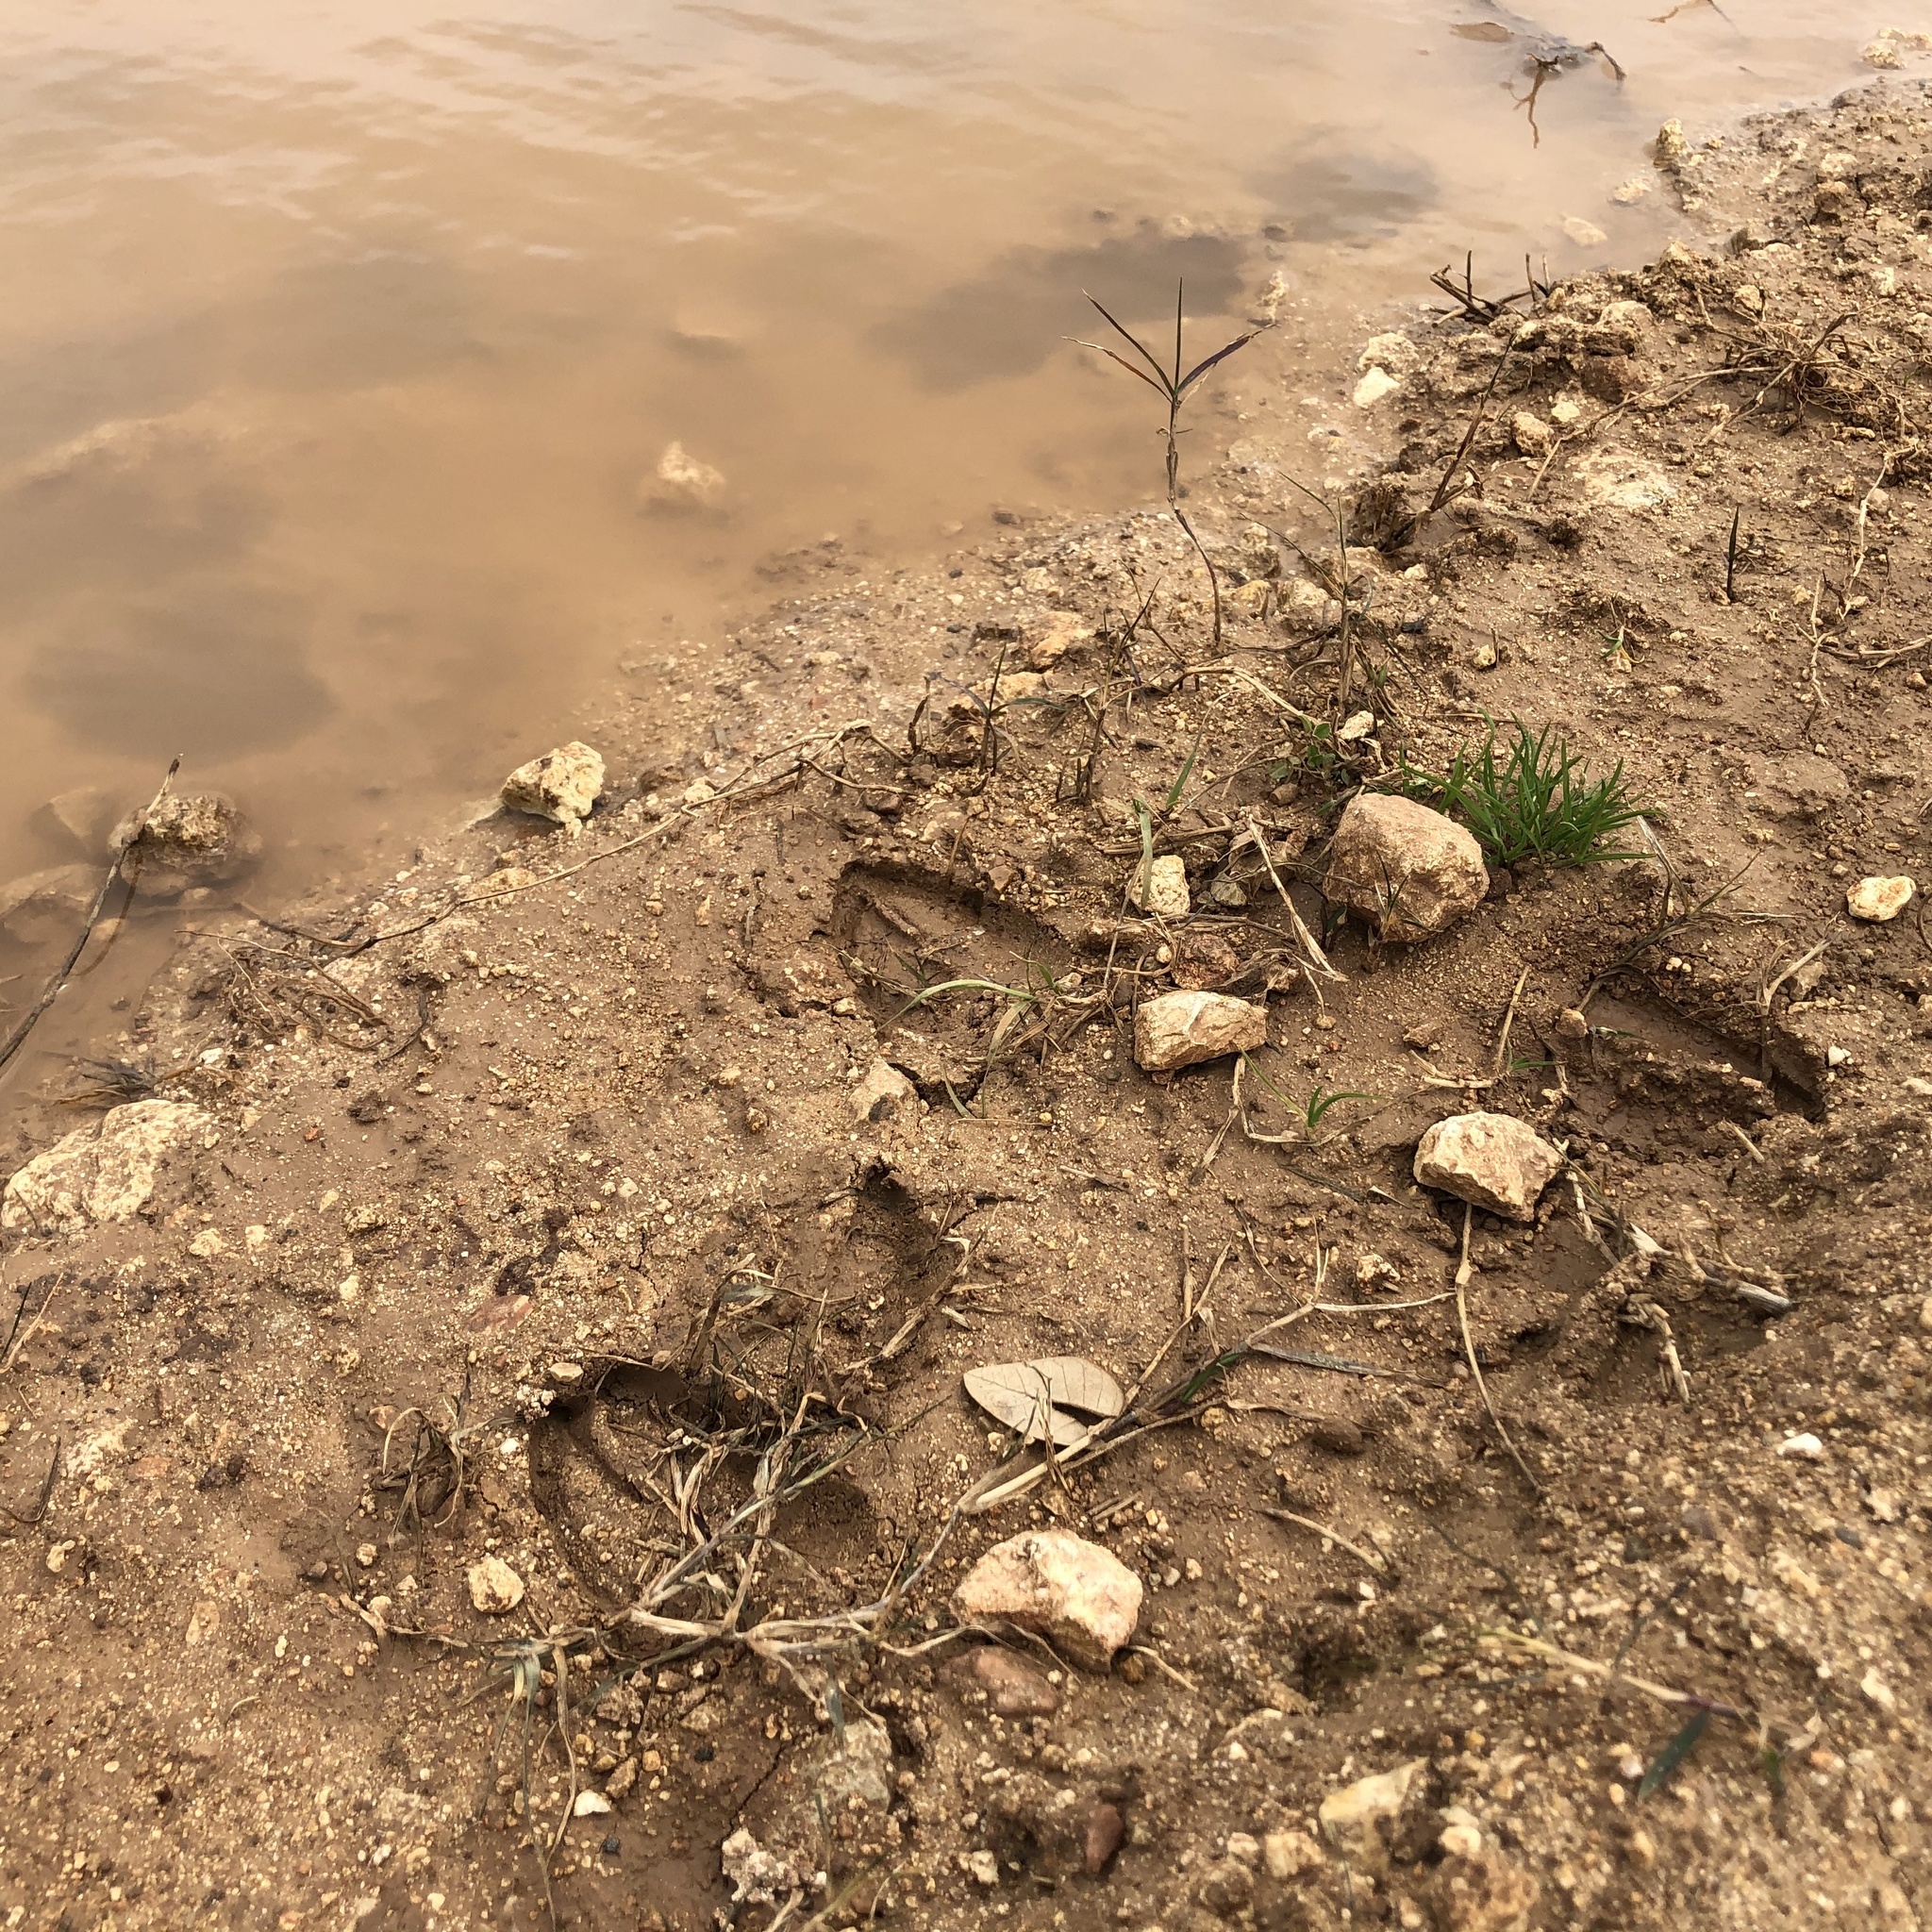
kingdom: Animalia
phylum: Chordata
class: Mammalia
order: Artiodactyla
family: Cervidae
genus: Odocoileus
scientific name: Odocoileus virginianus
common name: White-tailed deer
